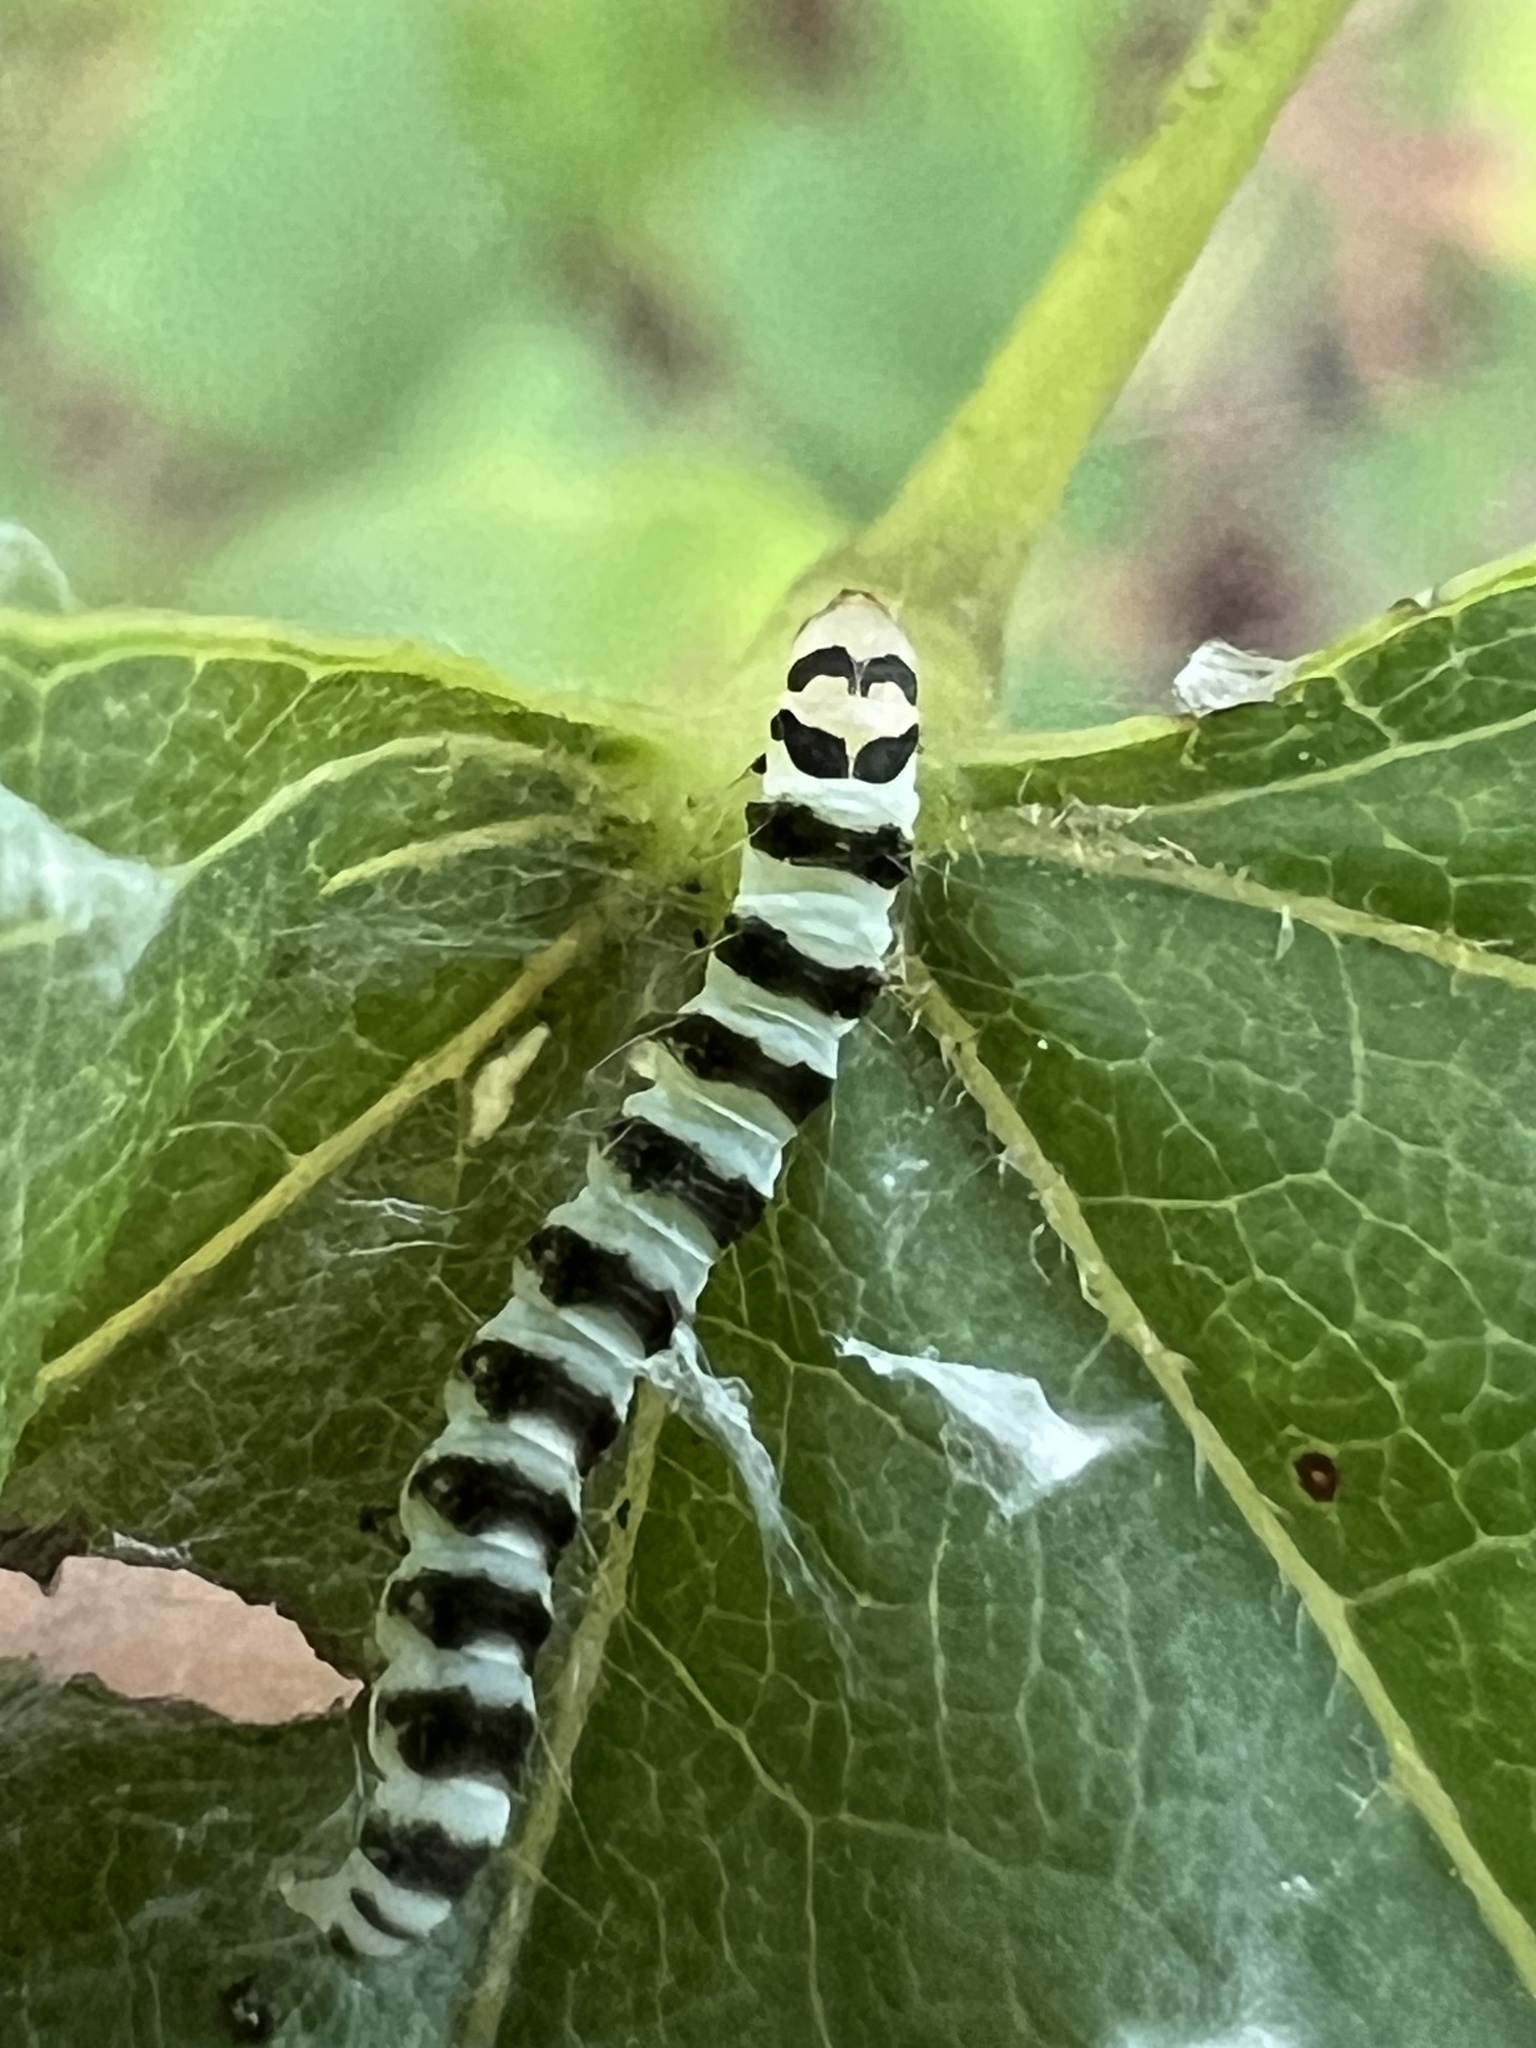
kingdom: Animalia
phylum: Arthropoda
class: Insecta
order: Lepidoptera
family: Gelechiidae
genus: Fascista
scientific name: Fascista cercerisella
